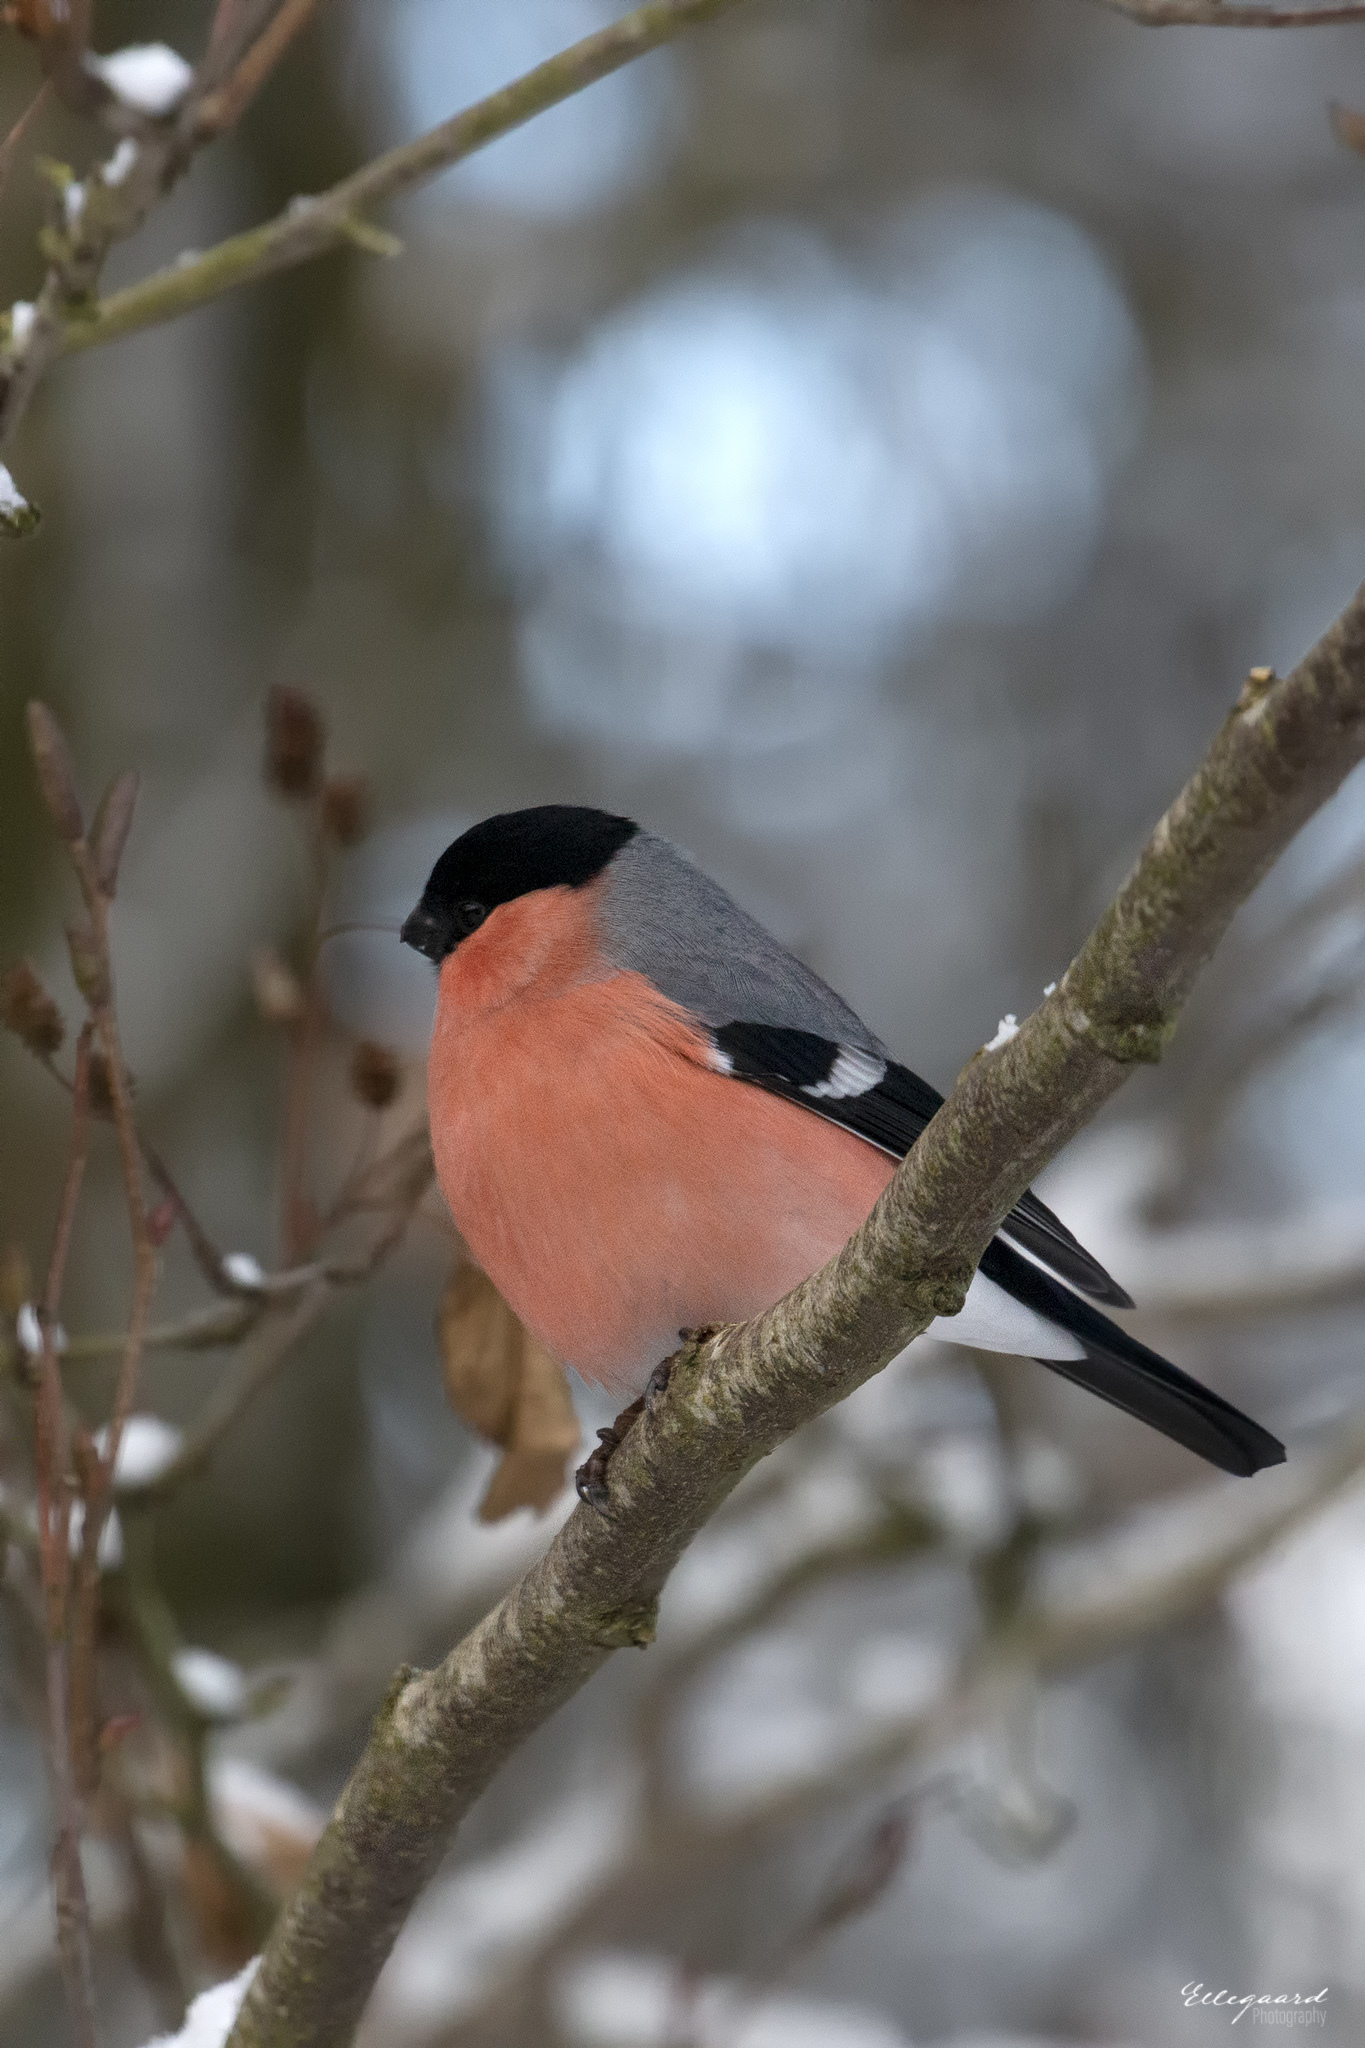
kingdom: Animalia
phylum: Chordata
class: Aves
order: Passeriformes
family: Fringillidae
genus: Pyrrhula
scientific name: Pyrrhula pyrrhula
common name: Eurasian bullfinch
